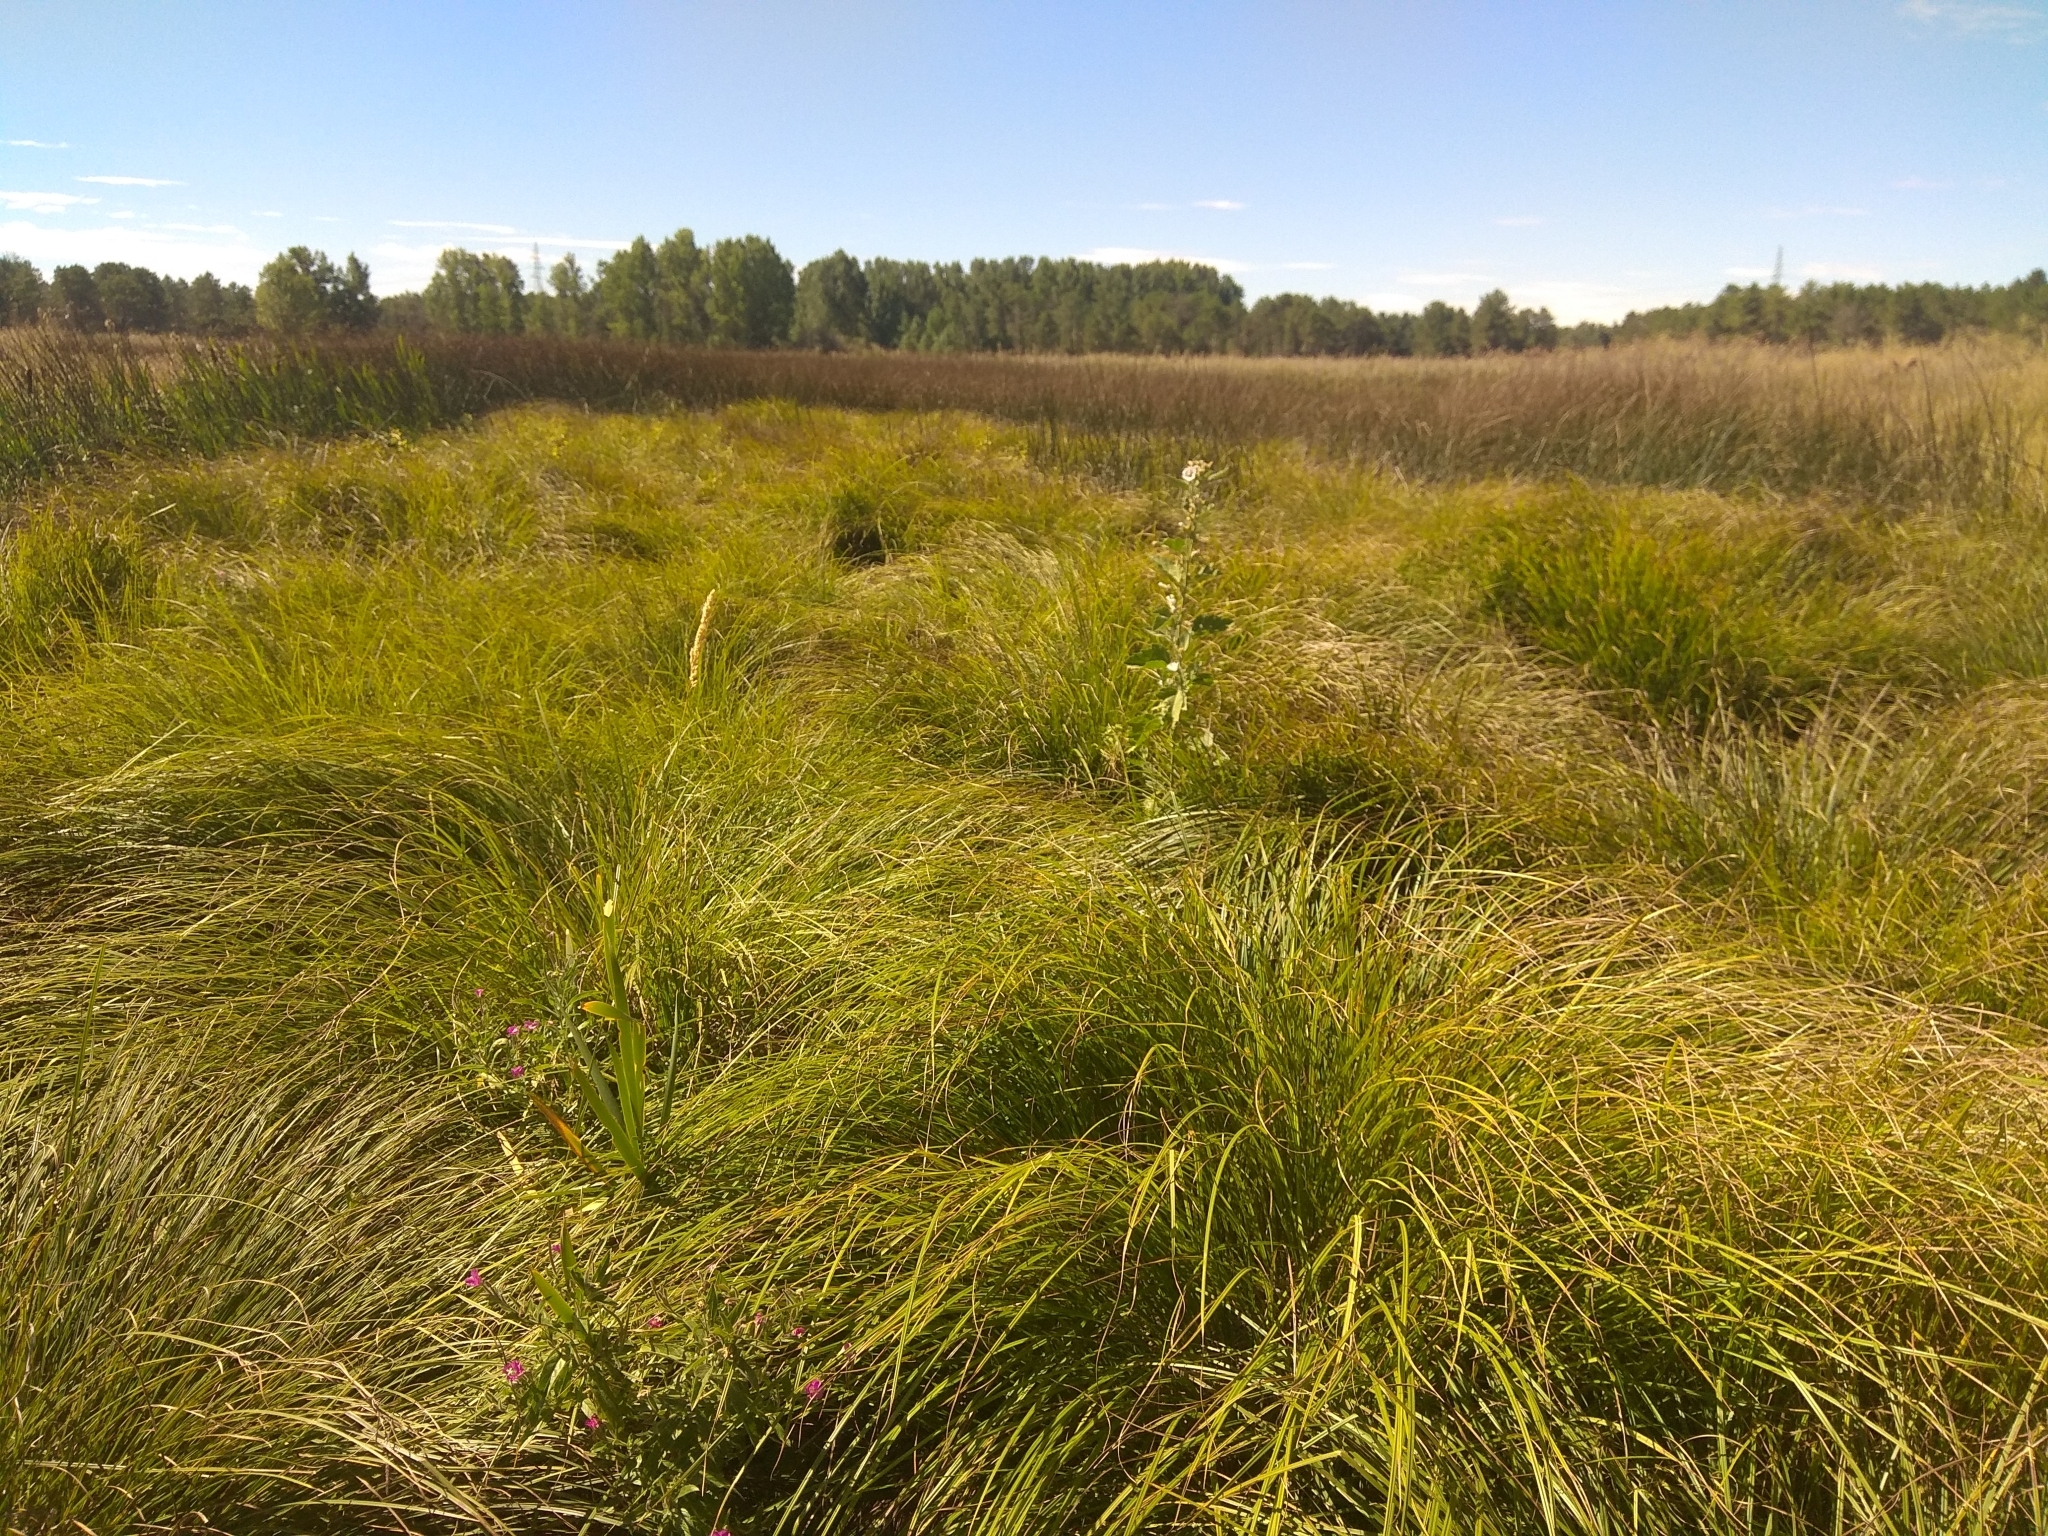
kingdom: Plantae
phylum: Tracheophyta
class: Liliopsida
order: Poales
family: Cyperaceae
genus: Carex
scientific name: Carex elata
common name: Tufted sedge
